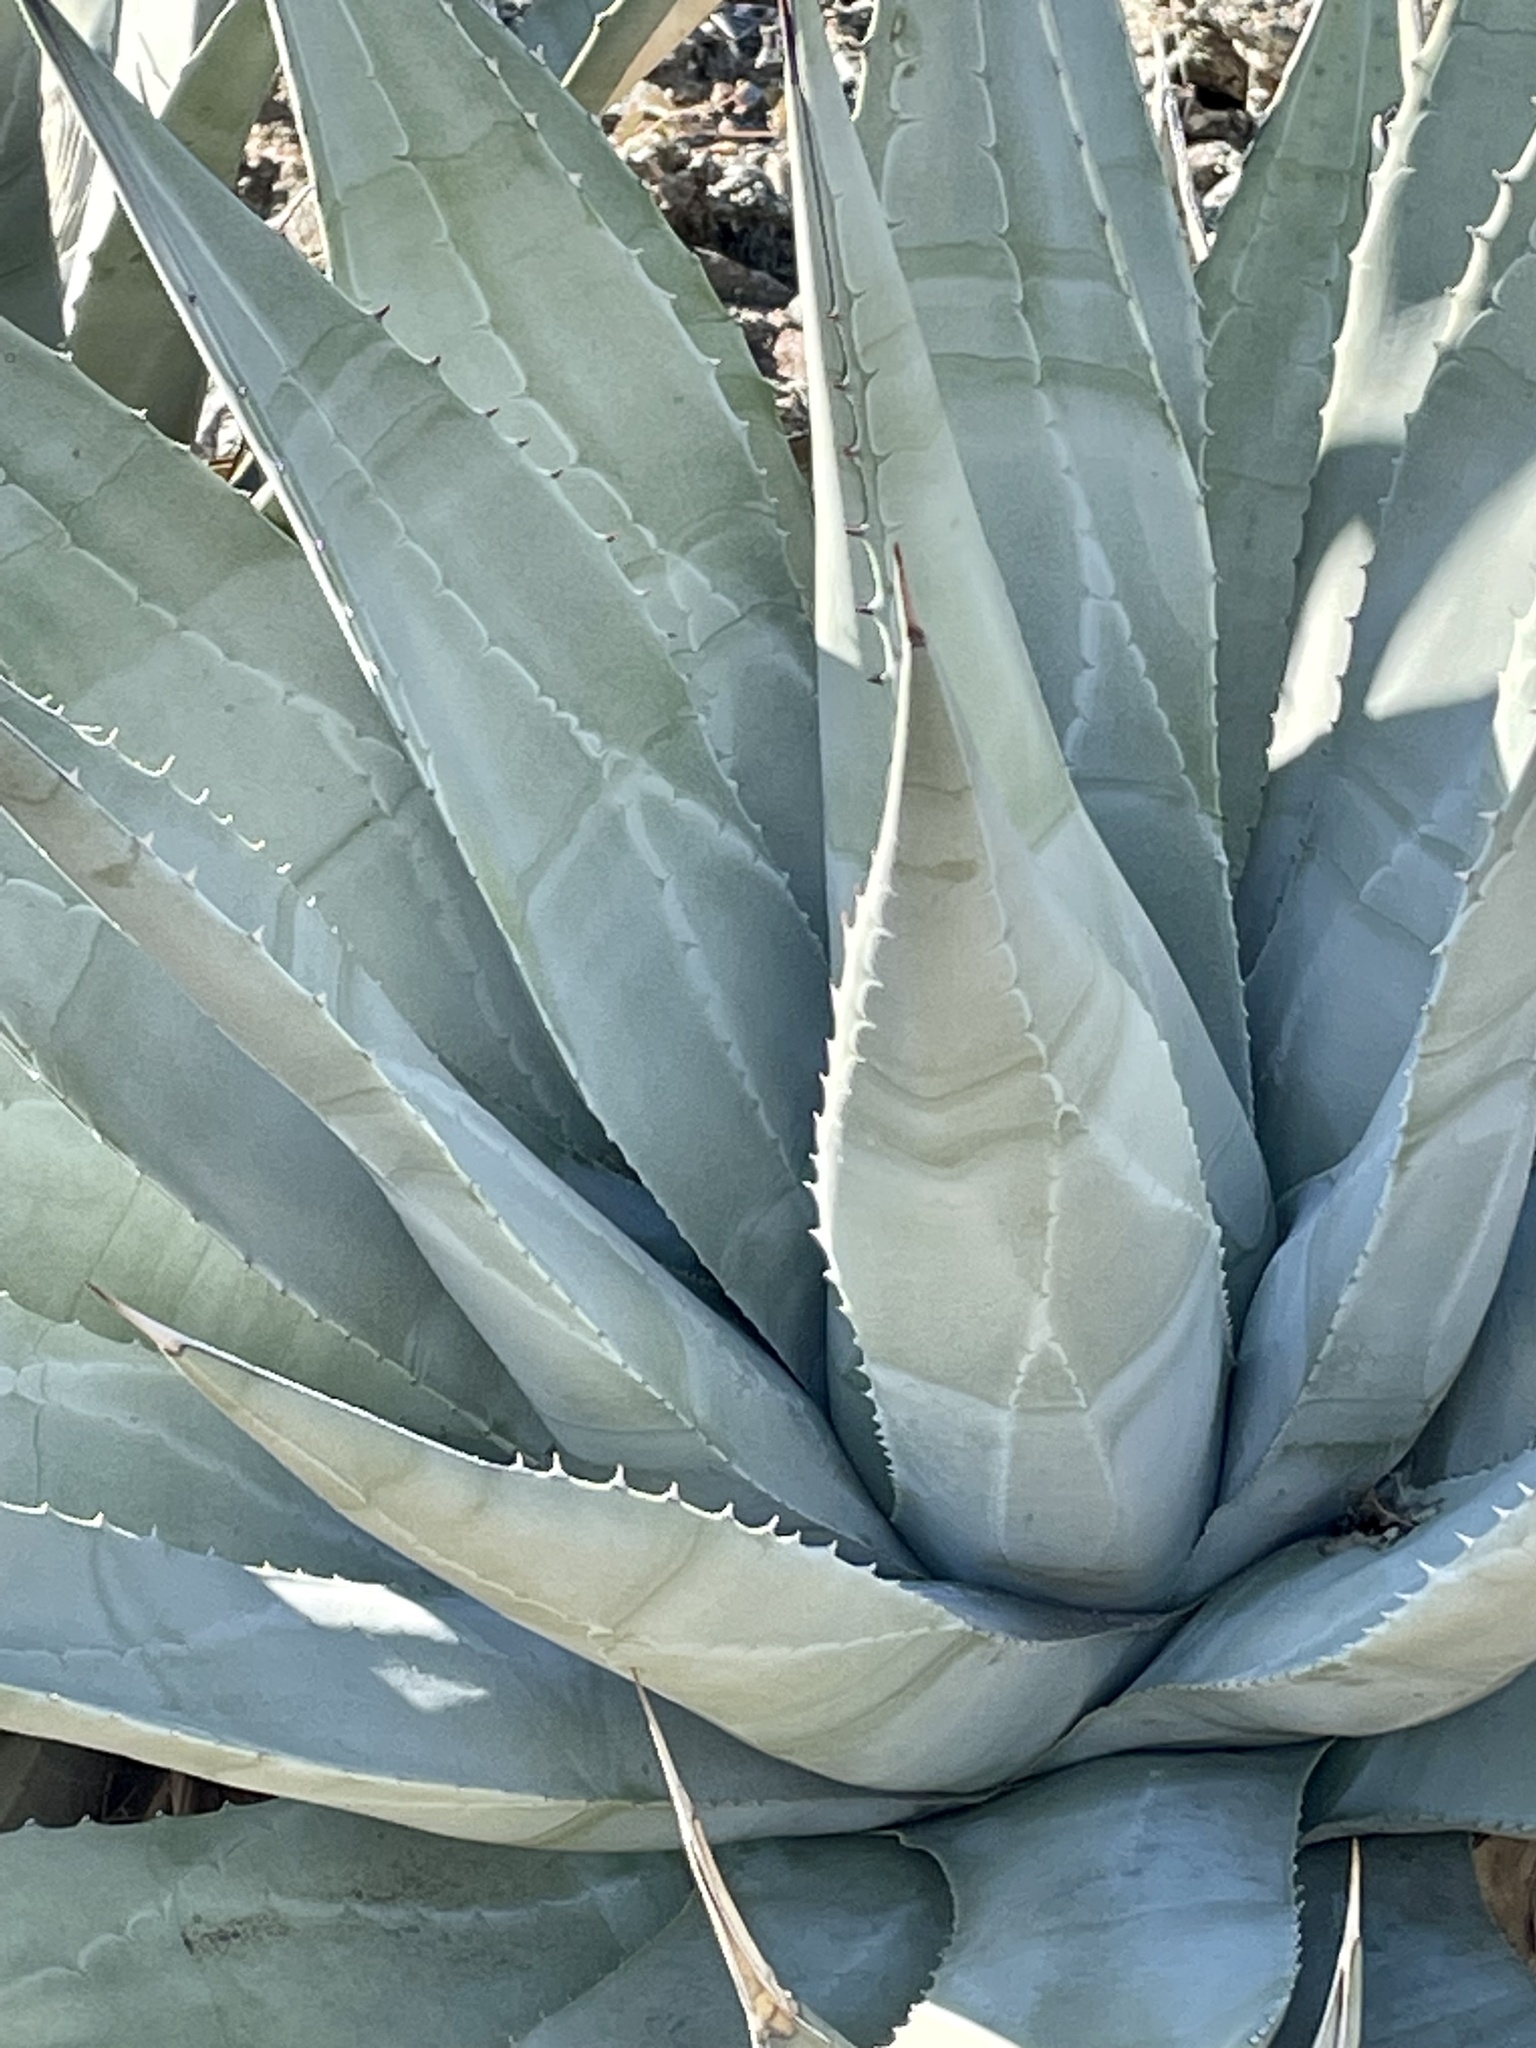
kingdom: Plantae
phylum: Tracheophyta
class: Liliopsida
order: Asparagales
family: Asparagaceae
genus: Agave
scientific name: Agave deserti
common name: Desert agave
